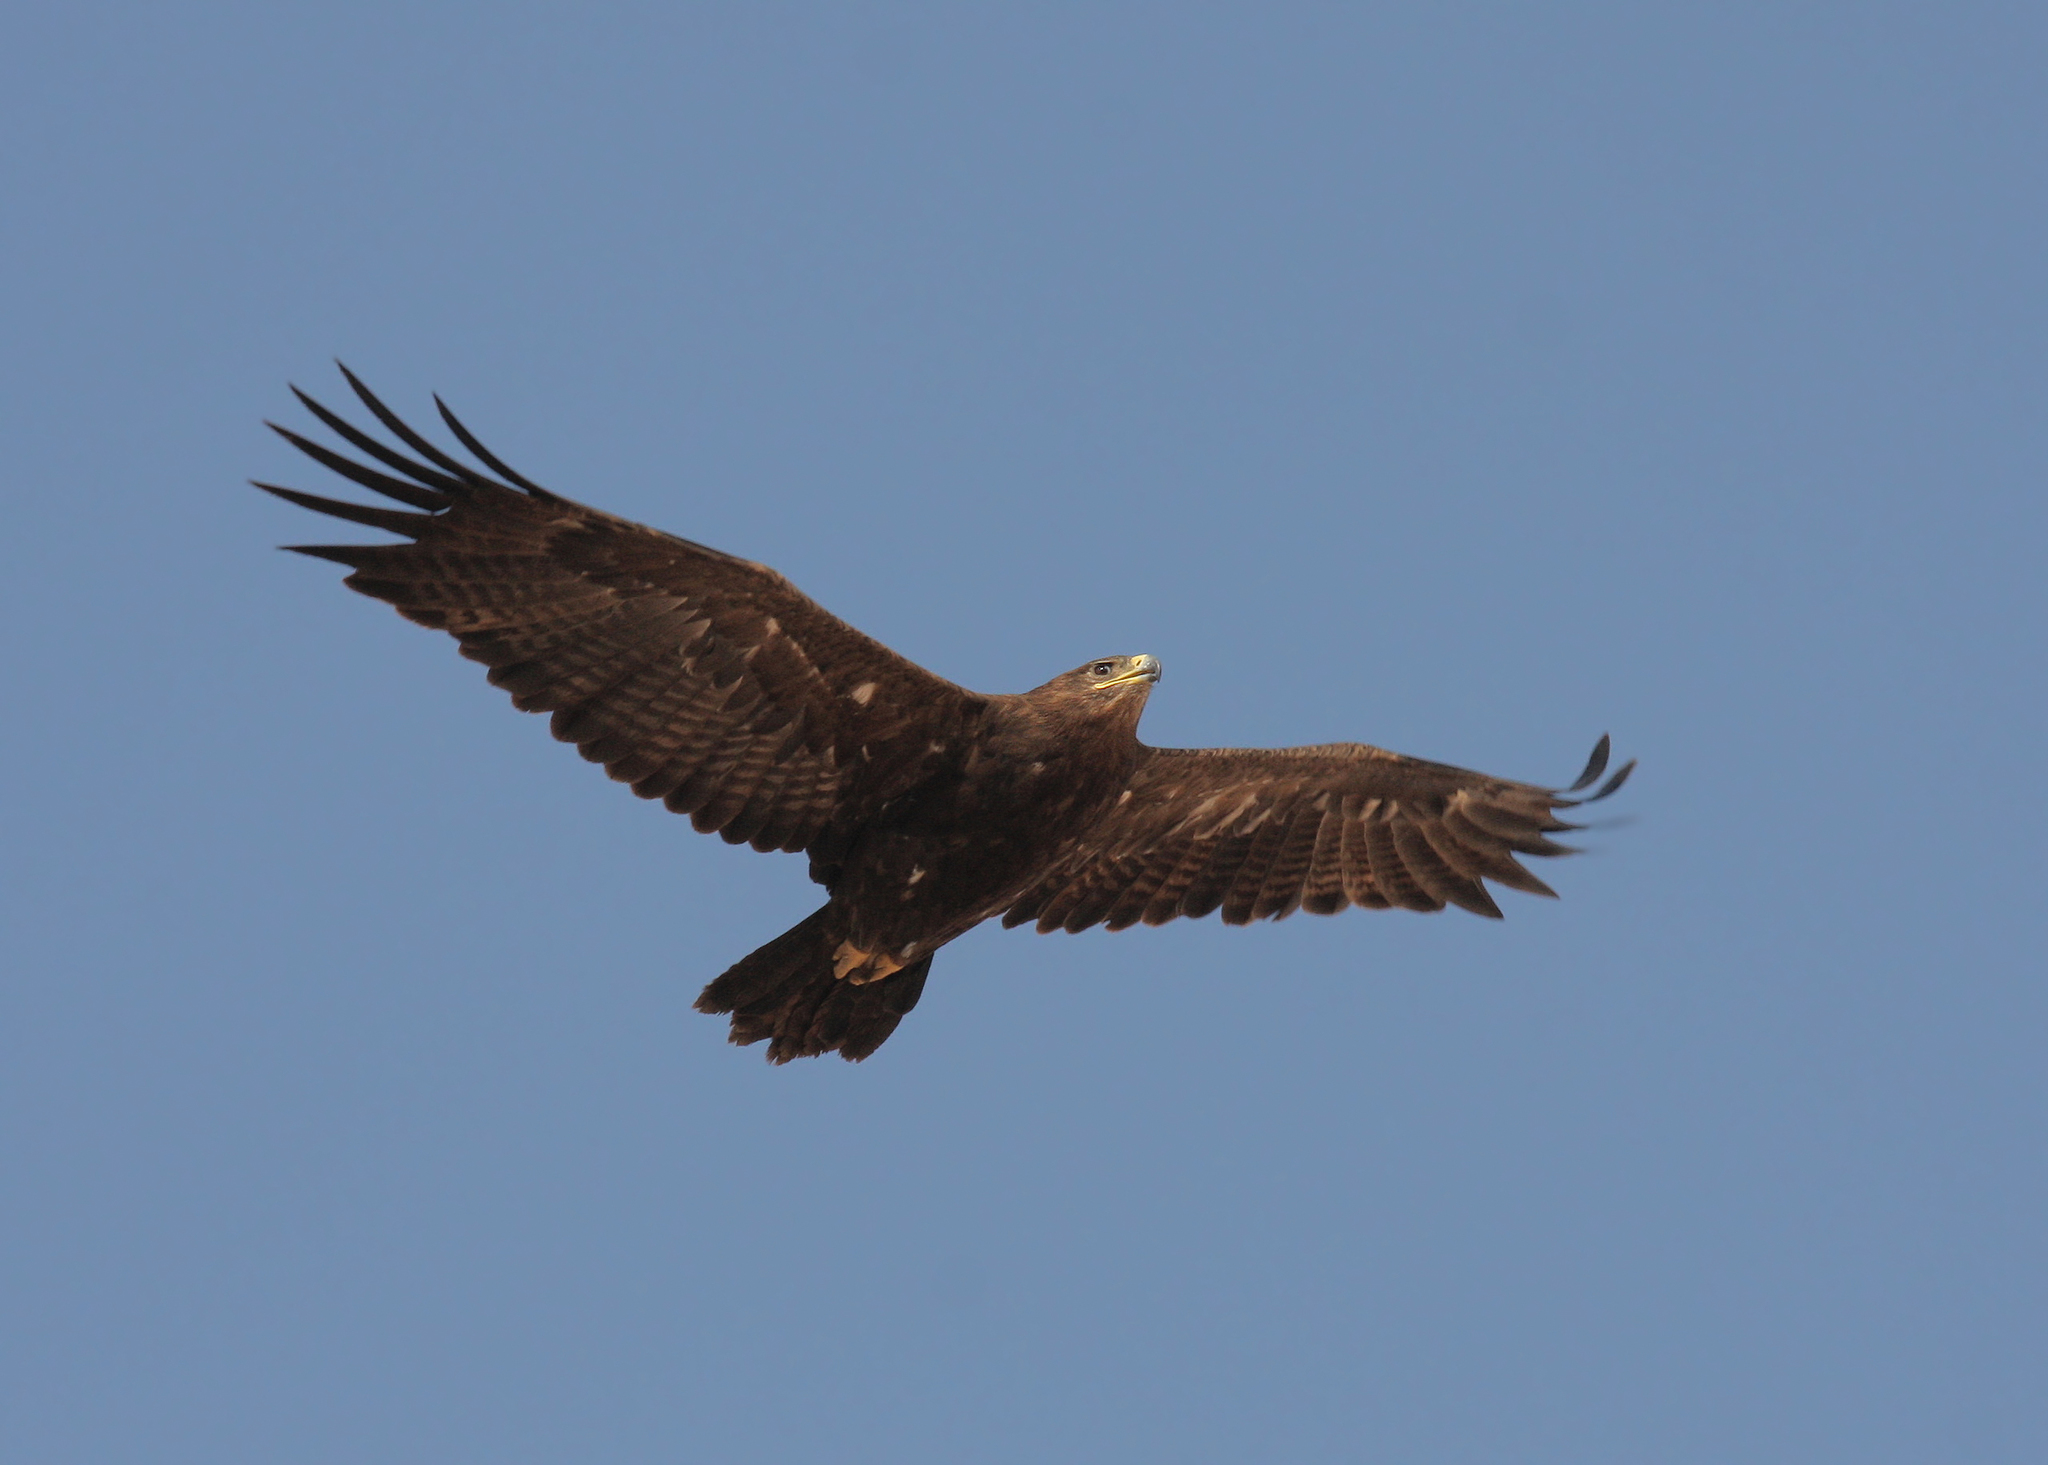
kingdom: Animalia
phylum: Chordata
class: Aves
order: Accipitriformes
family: Accipitridae
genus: Aquila
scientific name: Aquila nipalensis
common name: Steppe eagle
